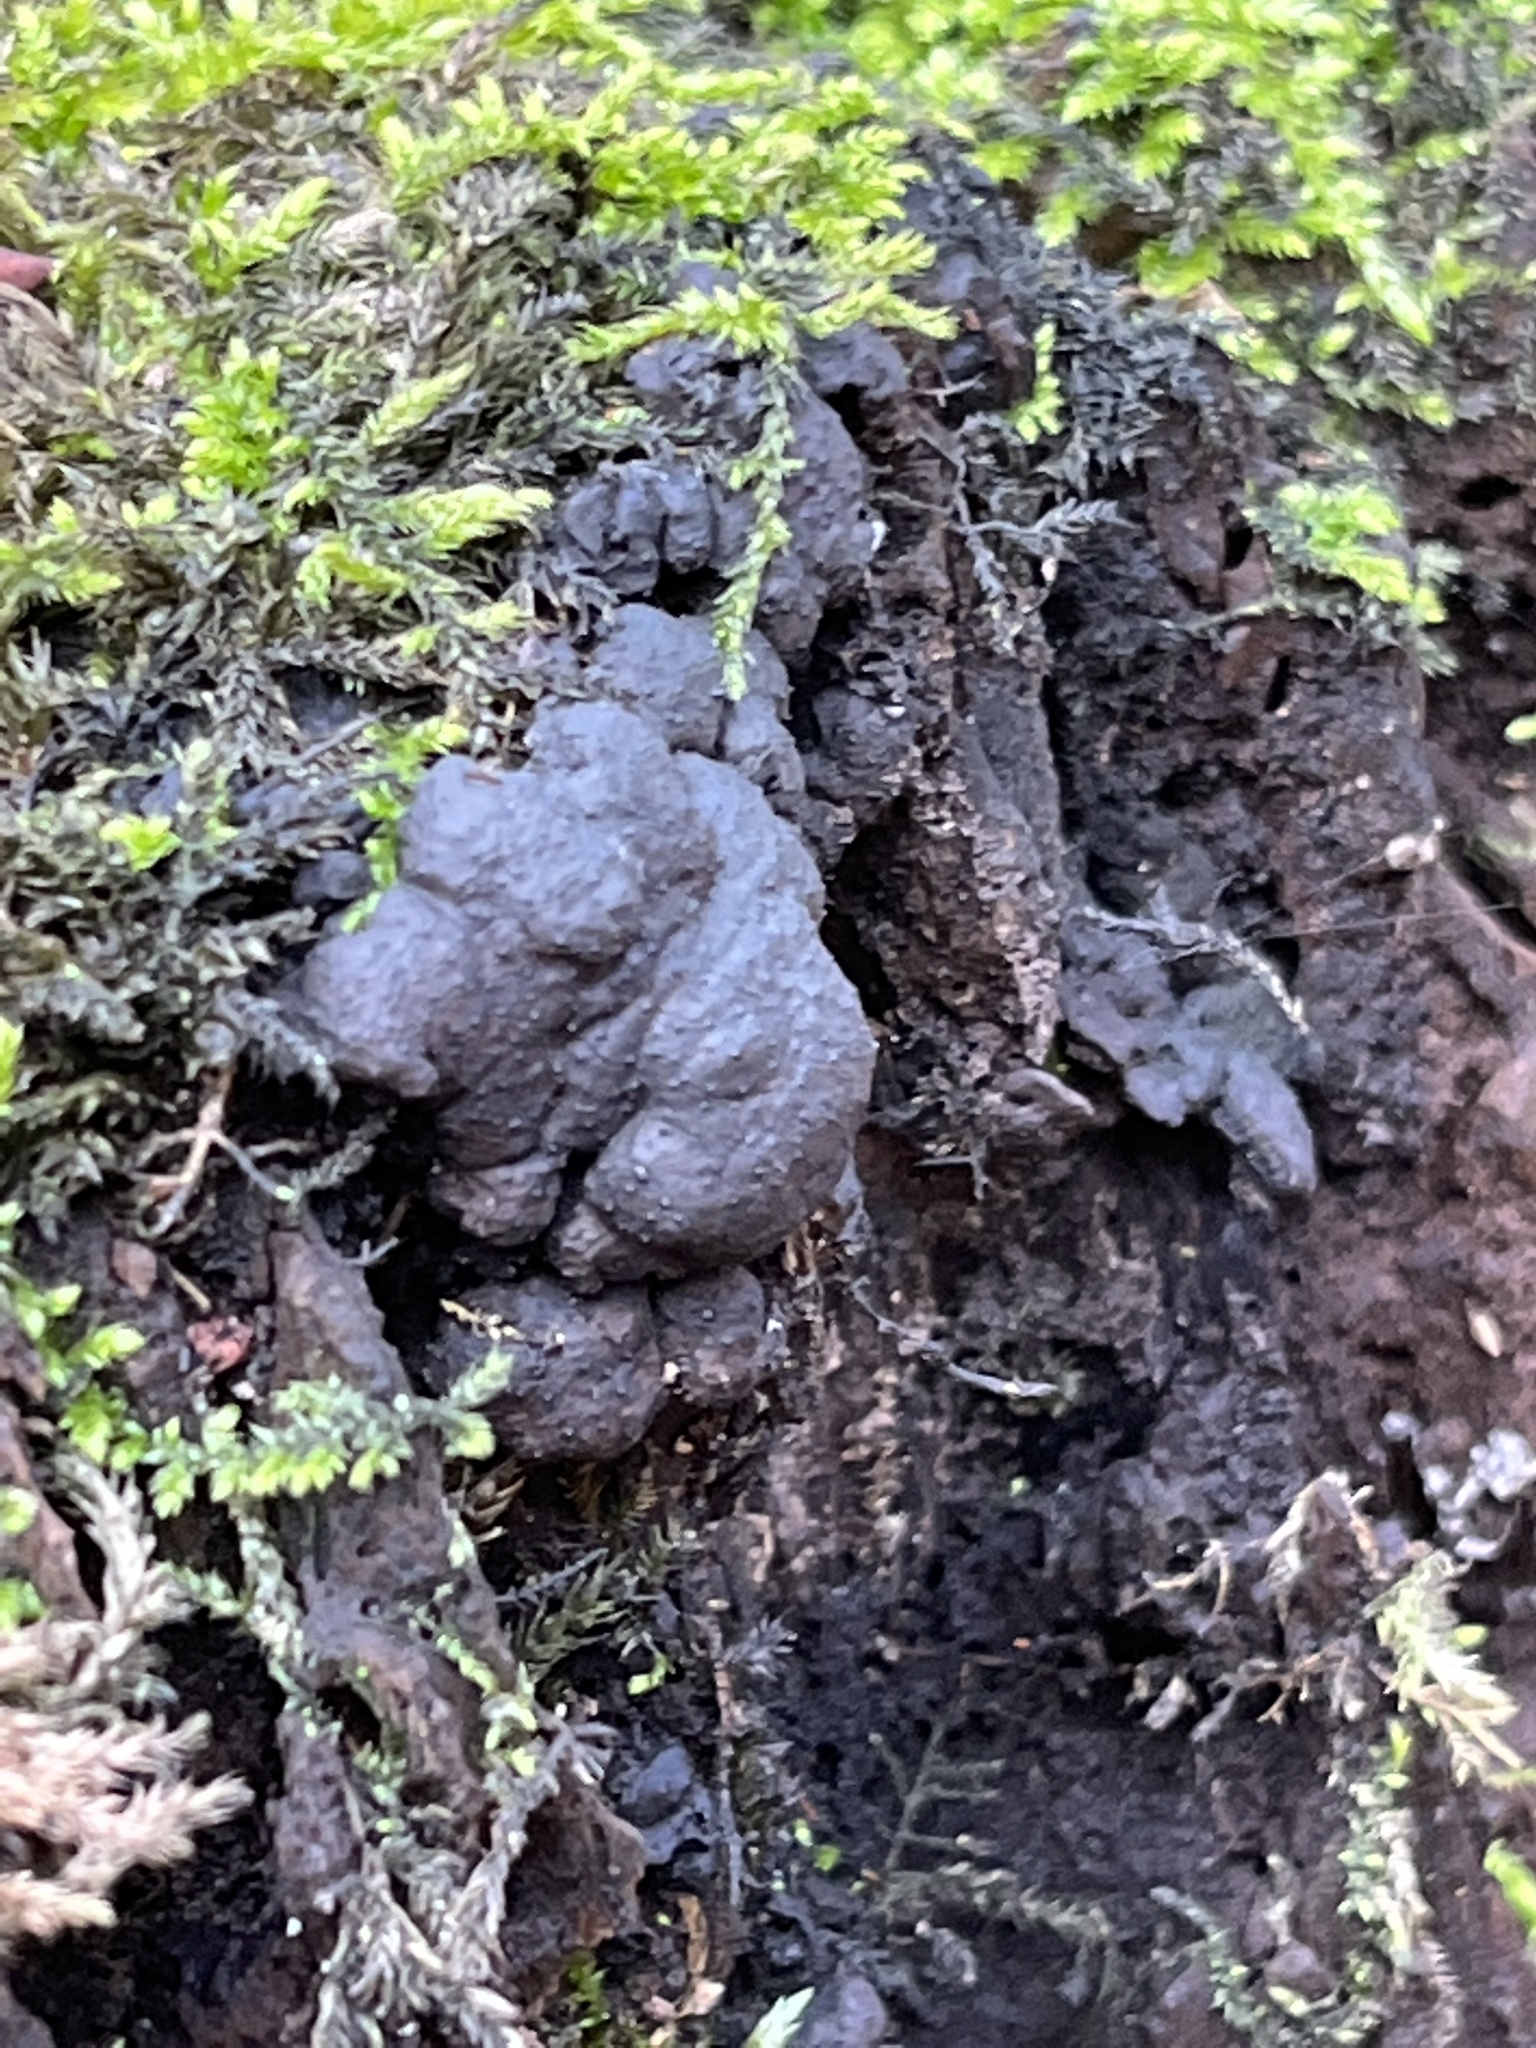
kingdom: Fungi
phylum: Ascomycota
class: Sordariomycetes
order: Xylariales
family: Xylariaceae
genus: Kretzschmaria
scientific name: Kretzschmaria deusta
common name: Brittle cinder
